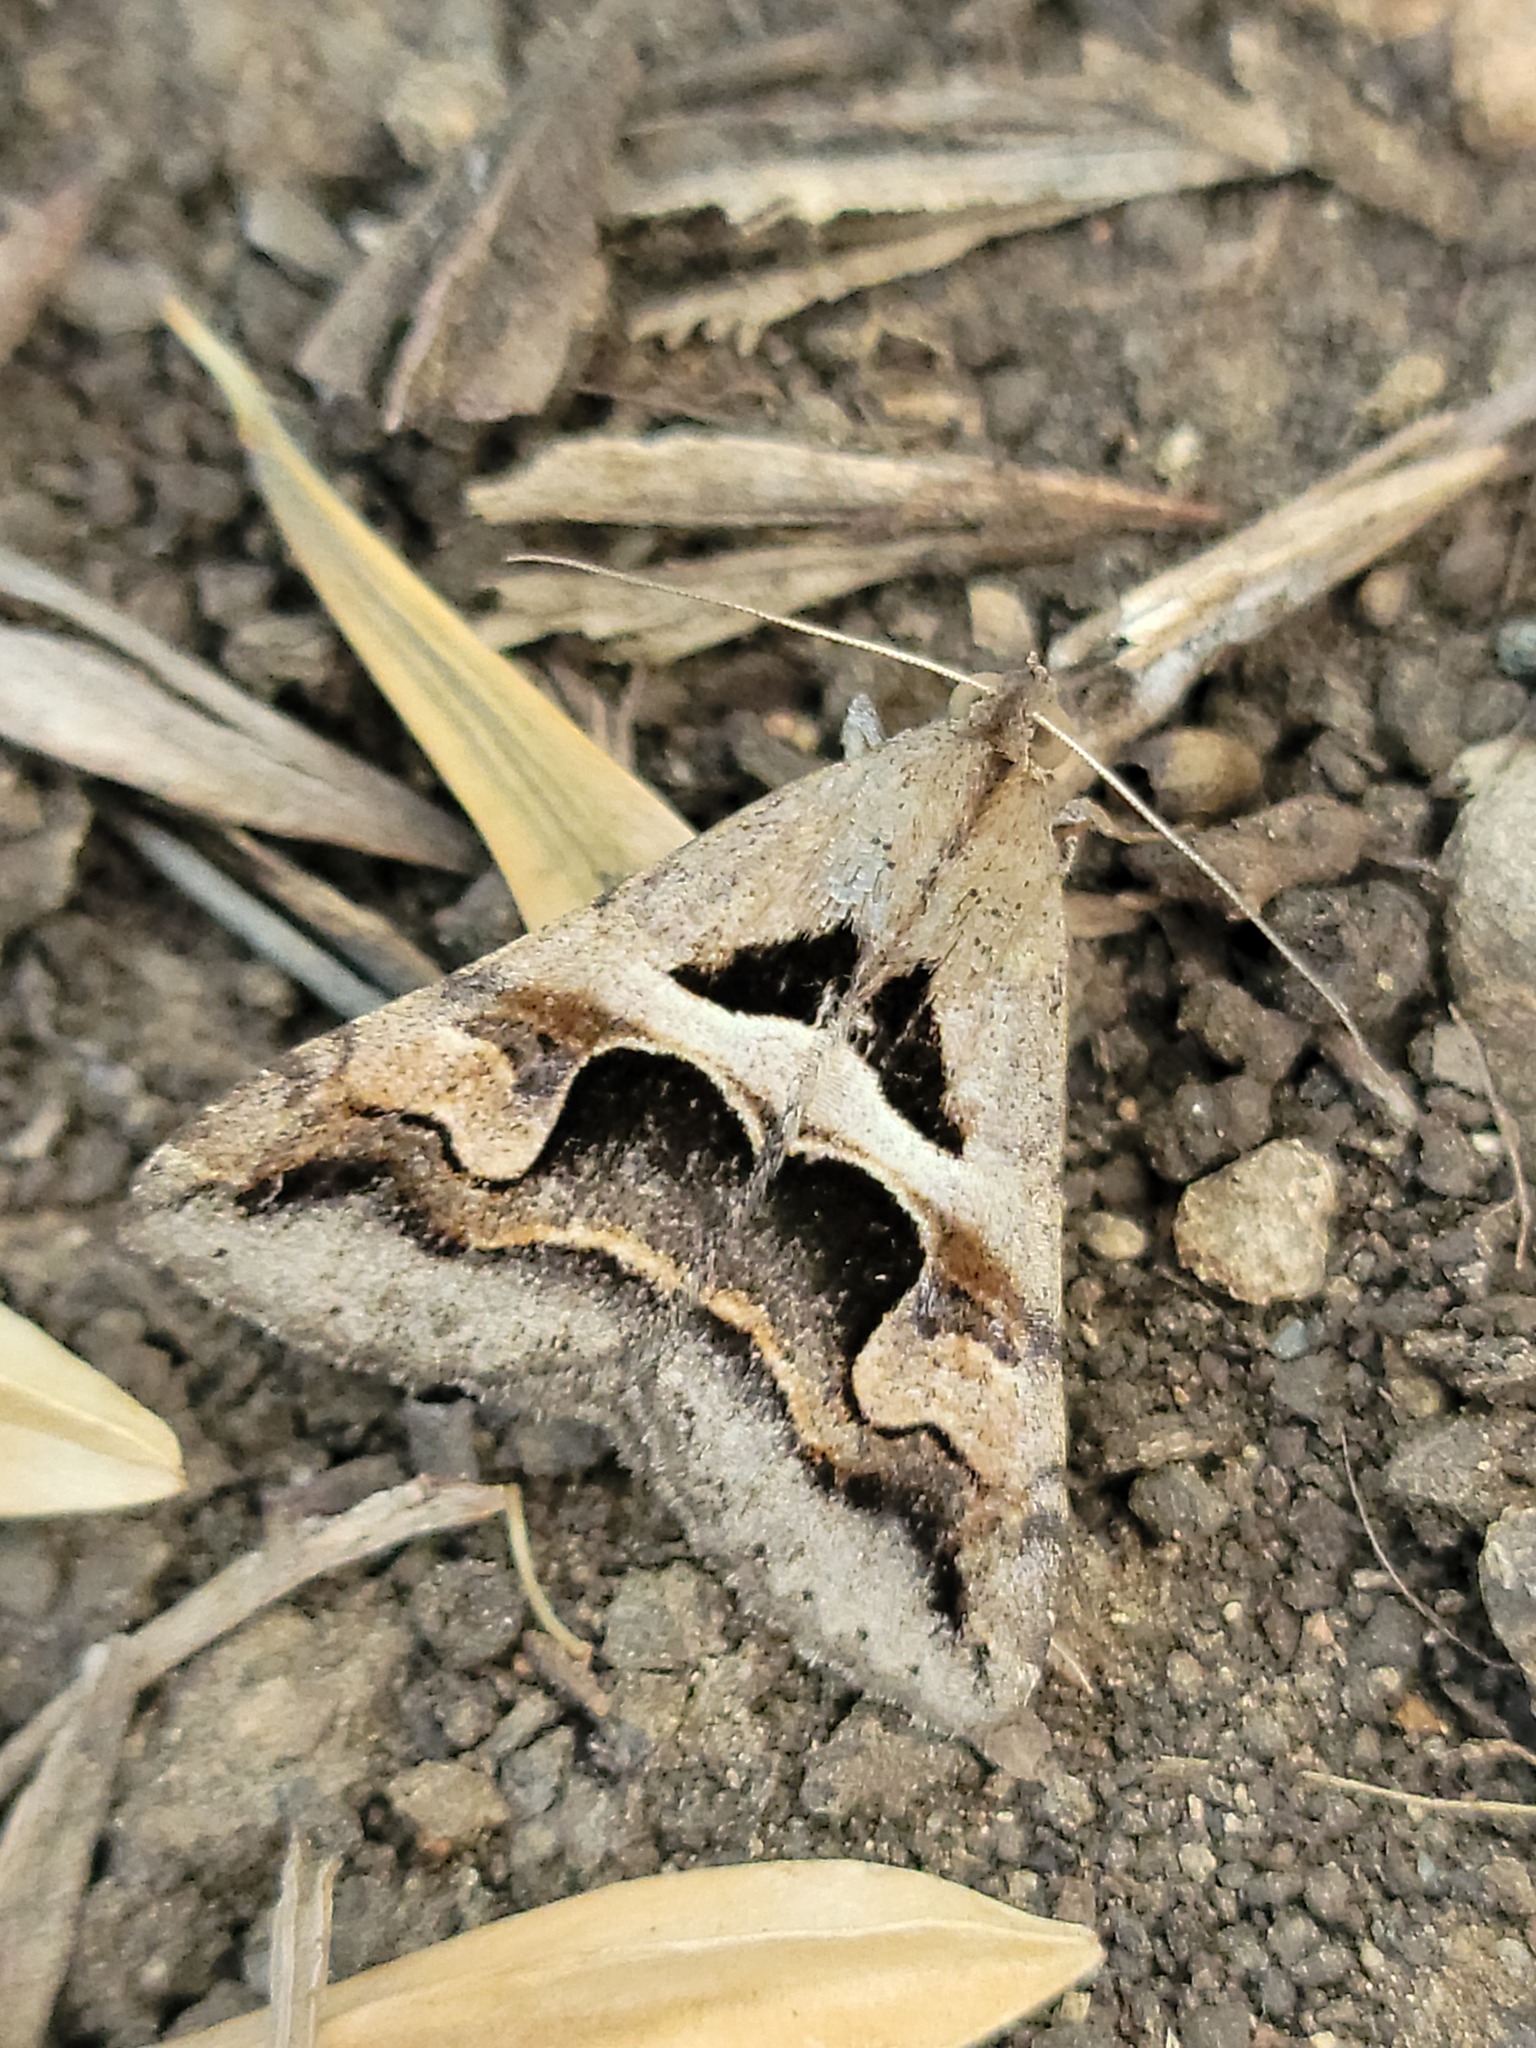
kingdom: Animalia
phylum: Arthropoda
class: Insecta
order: Lepidoptera
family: Erebidae
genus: Melipotis
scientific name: Melipotis cellaris
